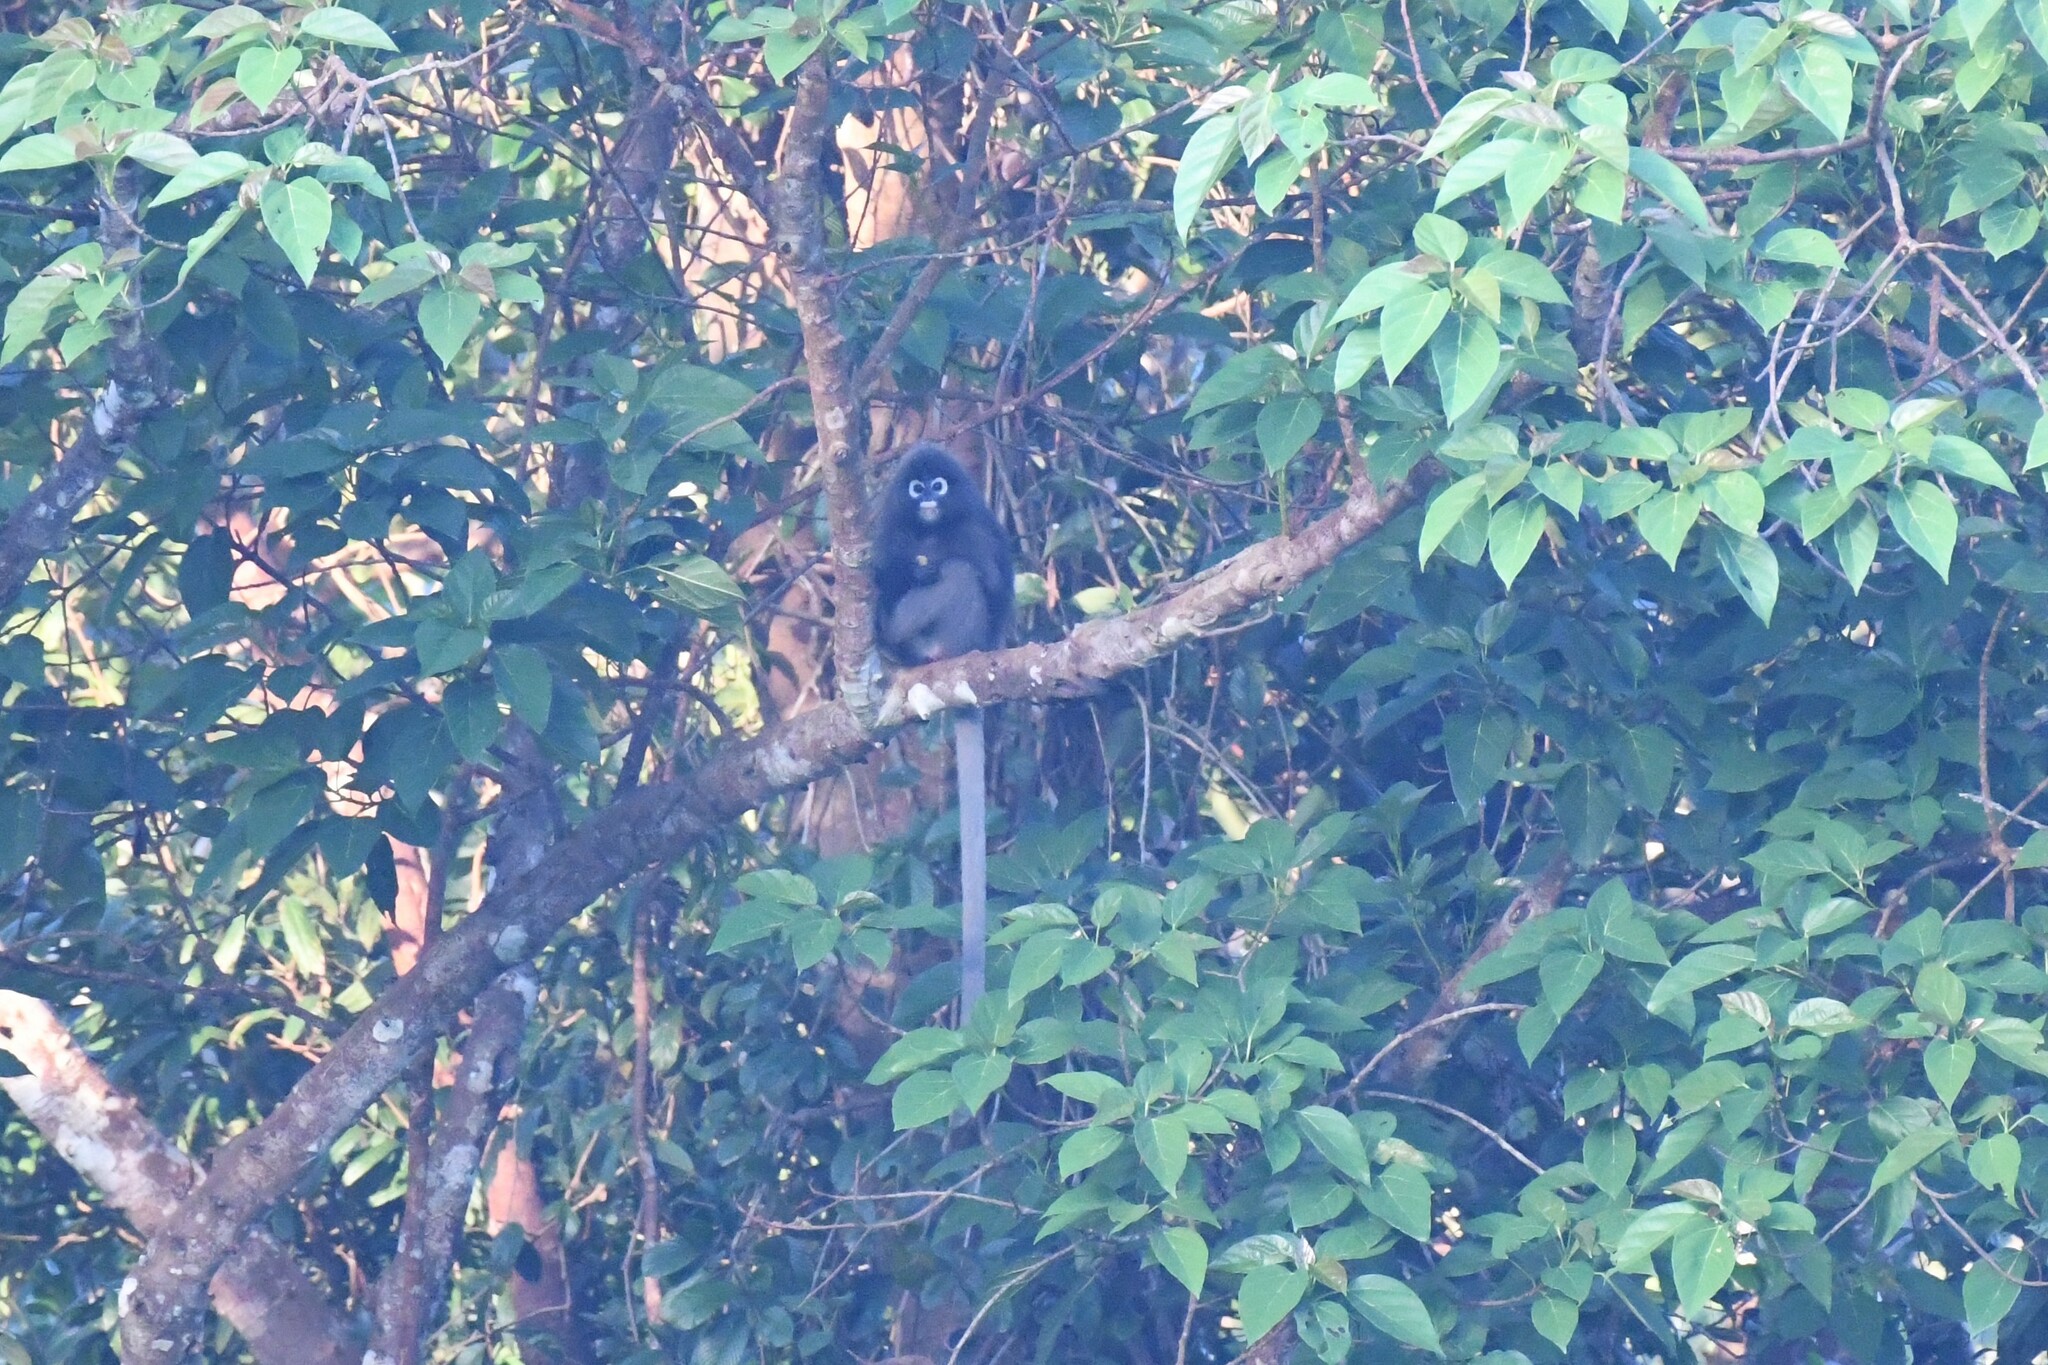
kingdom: Animalia
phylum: Chordata
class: Mammalia
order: Primates
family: Cercopithecidae
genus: Trachypithecus
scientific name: Trachypithecus obscurus
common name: Dusky leaf-monkey
